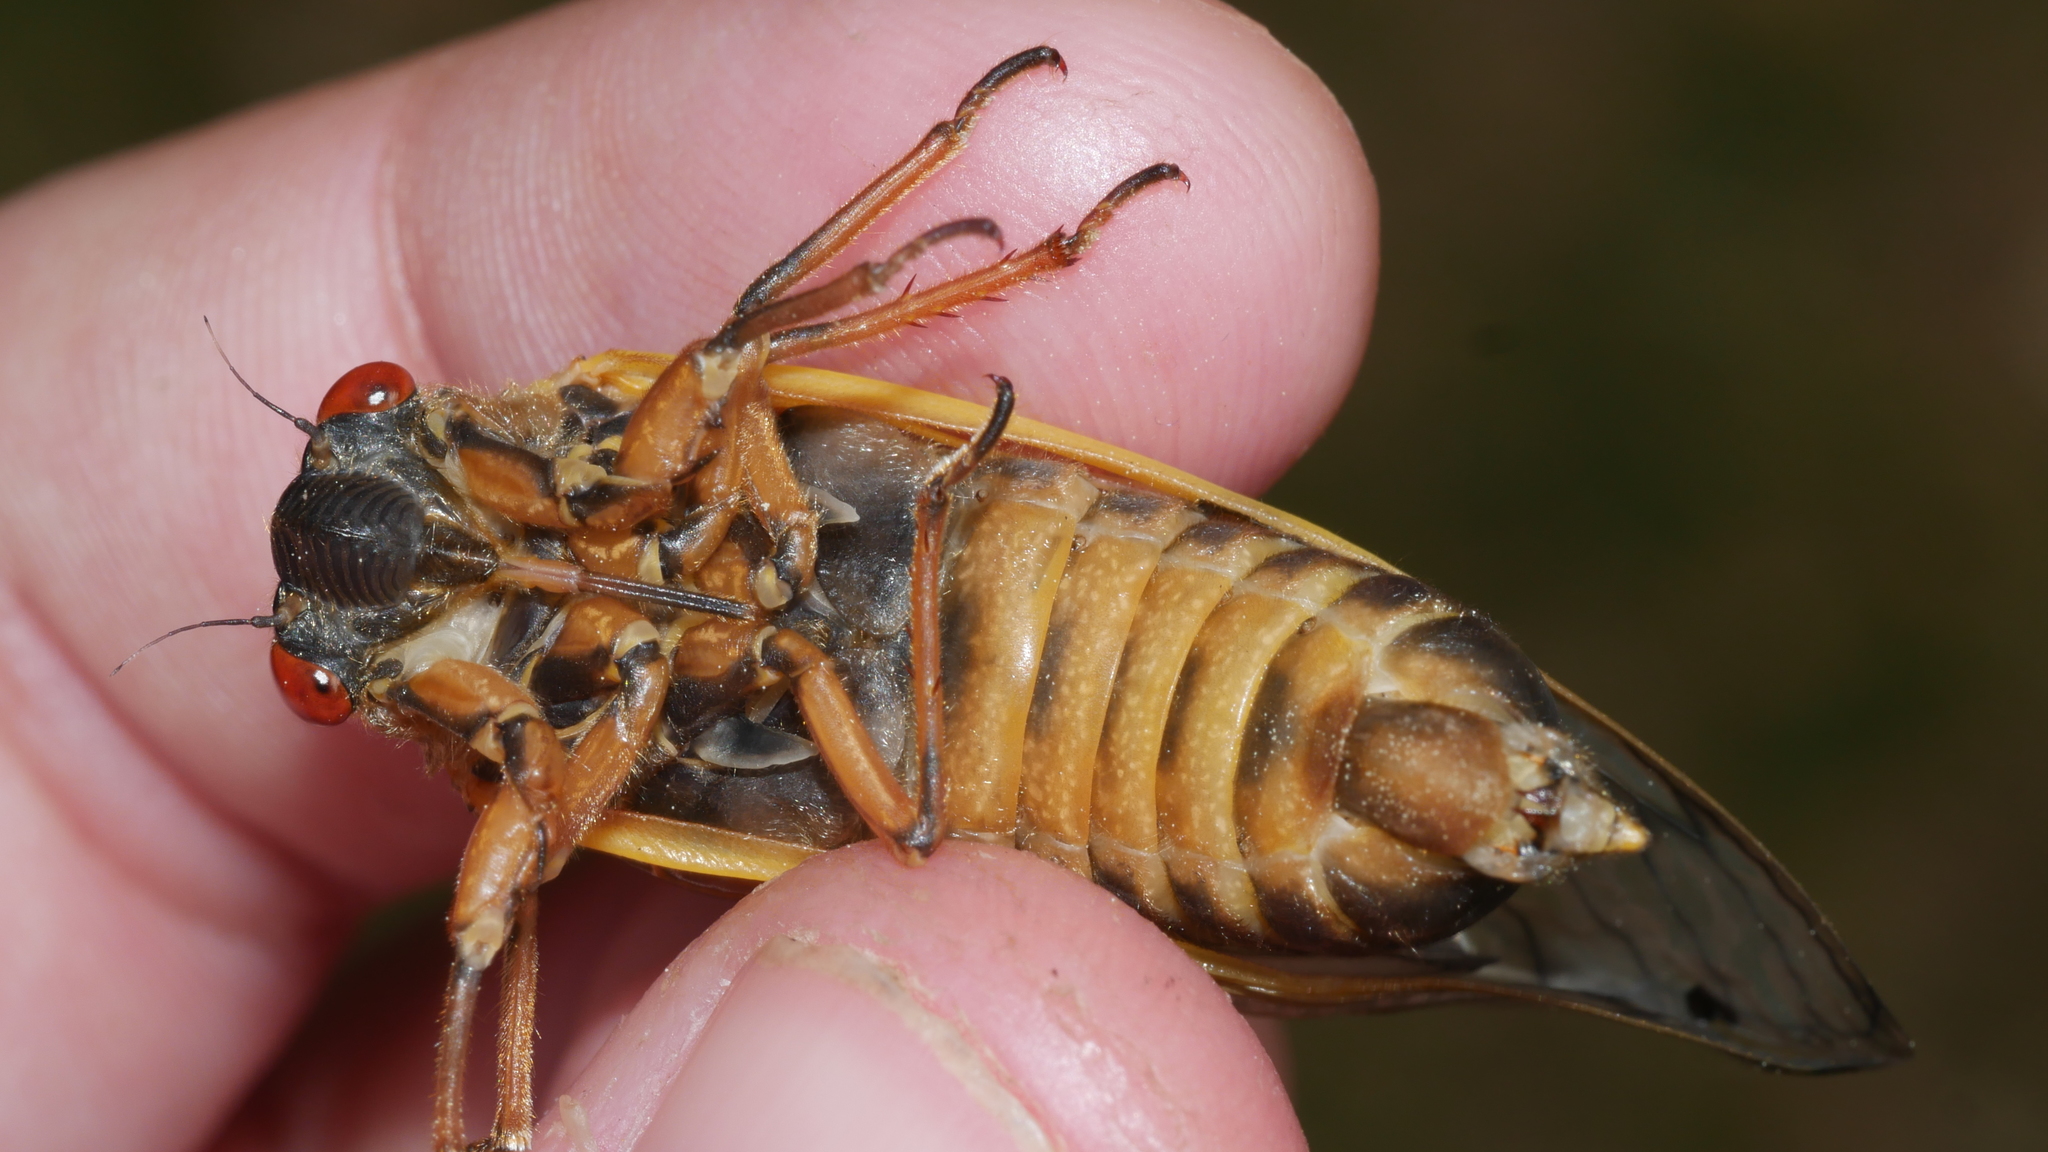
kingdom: Animalia
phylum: Arthropoda
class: Insecta
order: Hemiptera
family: Cicadidae
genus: Magicicada
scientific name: Magicicada septendecim
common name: Periodical cicada
